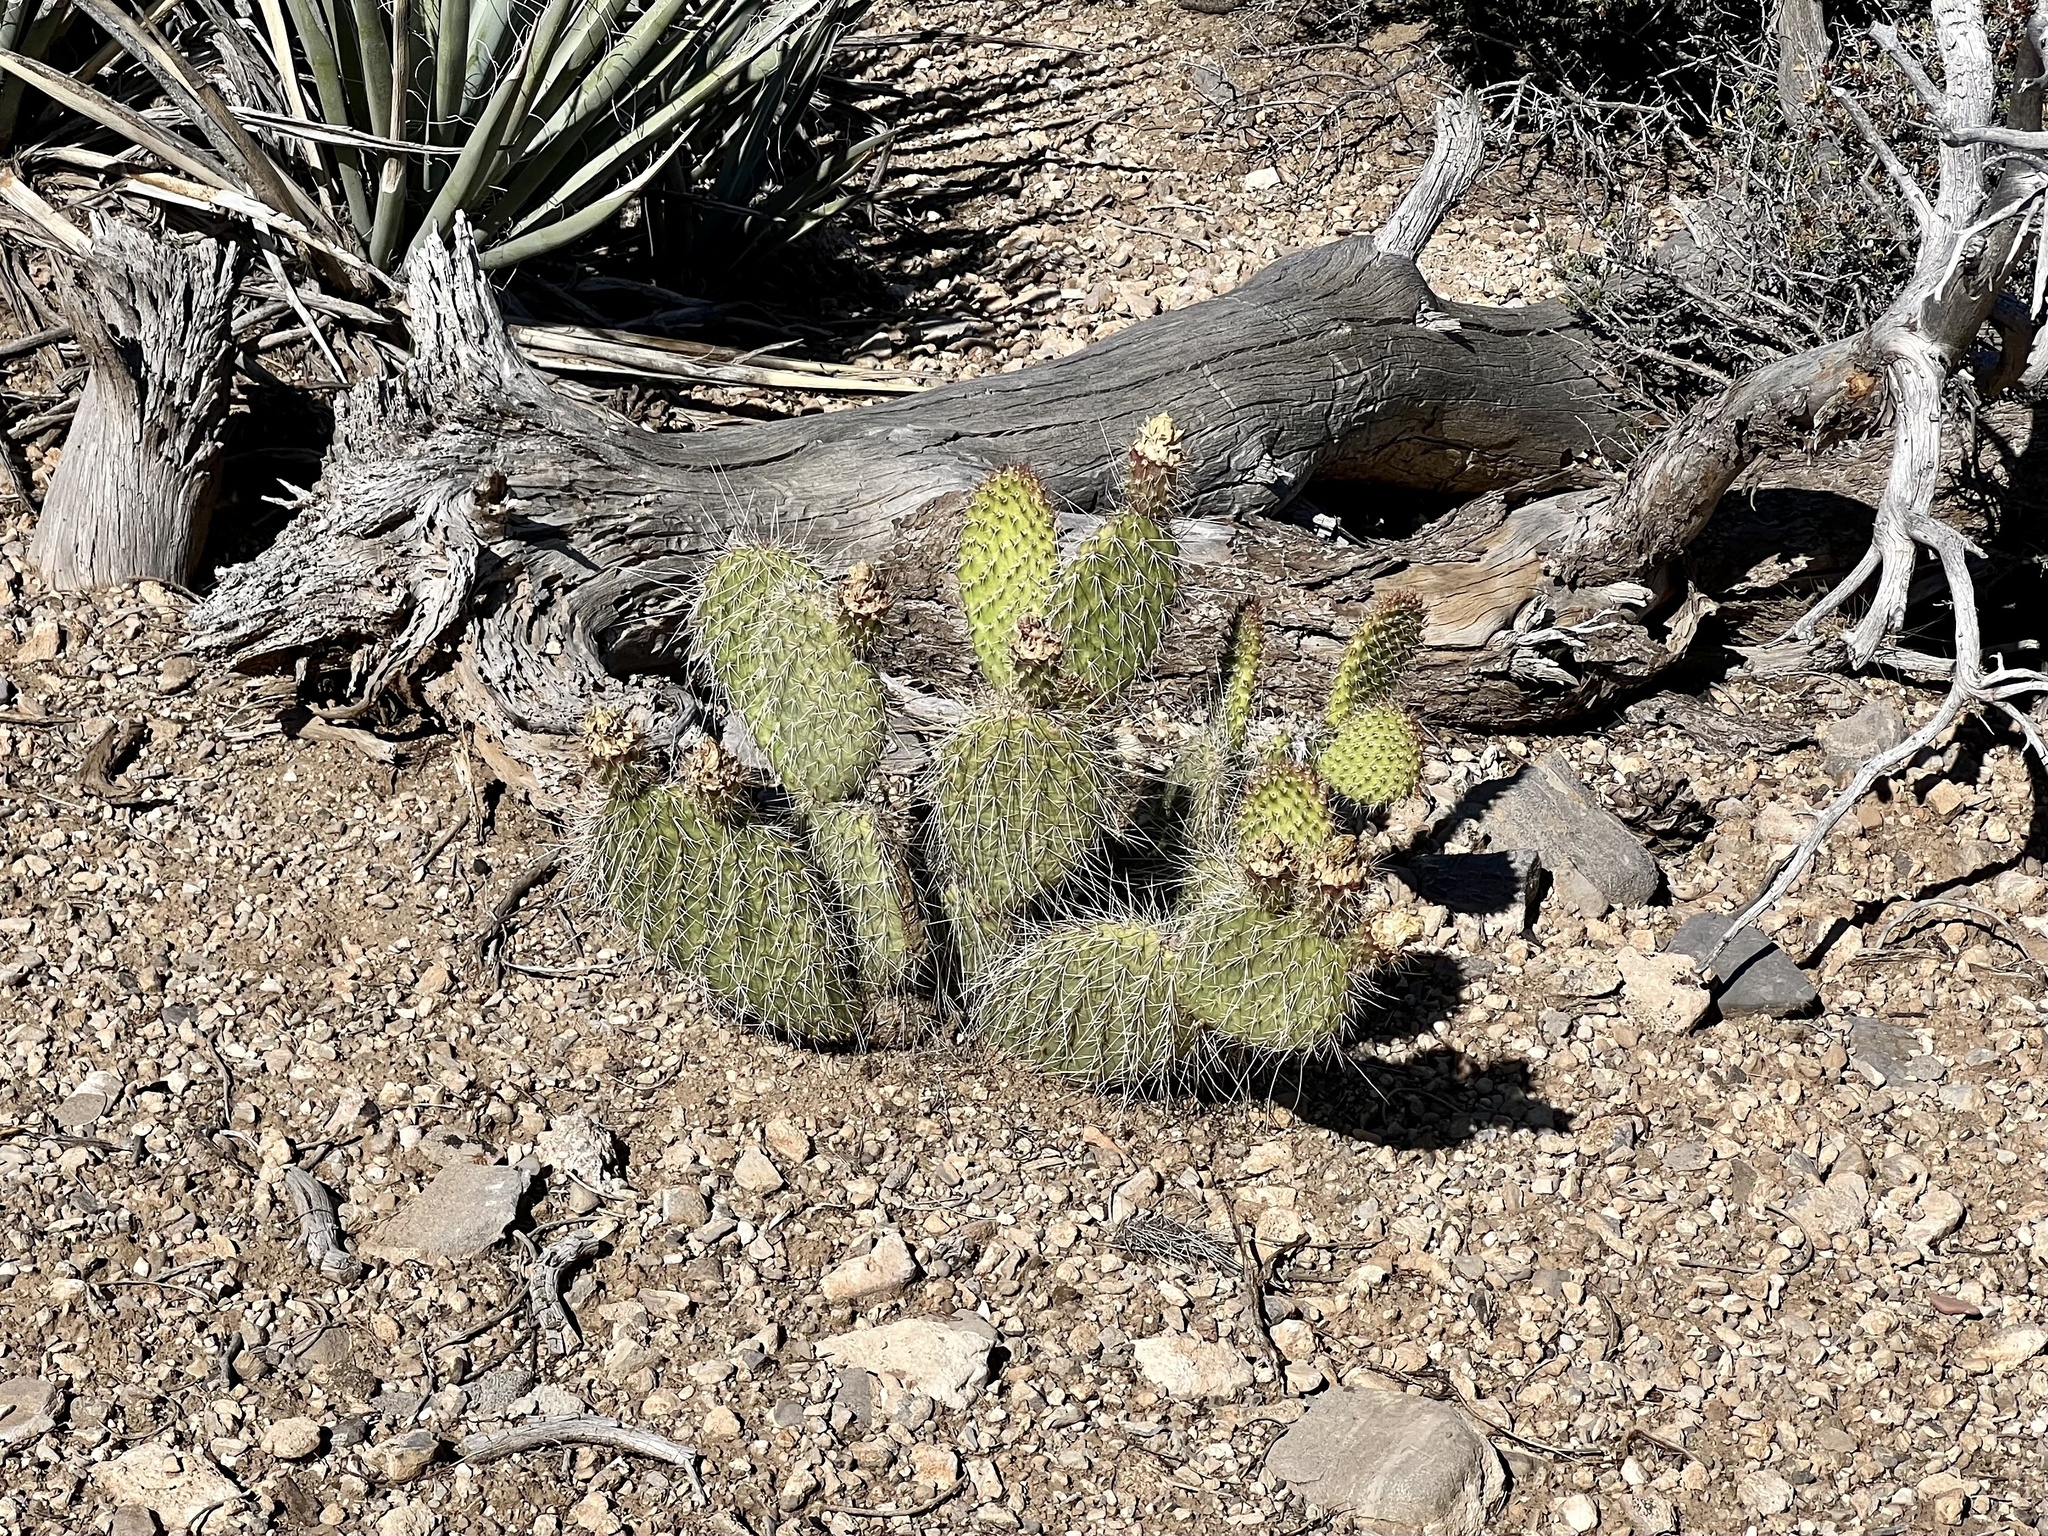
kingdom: Plantae
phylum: Tracheophyta
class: Magnoliopsida
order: Caryophyllales
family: Cactaceae
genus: Opuntia
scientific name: Opuntia polyacantha
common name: Plains prickly-pear
